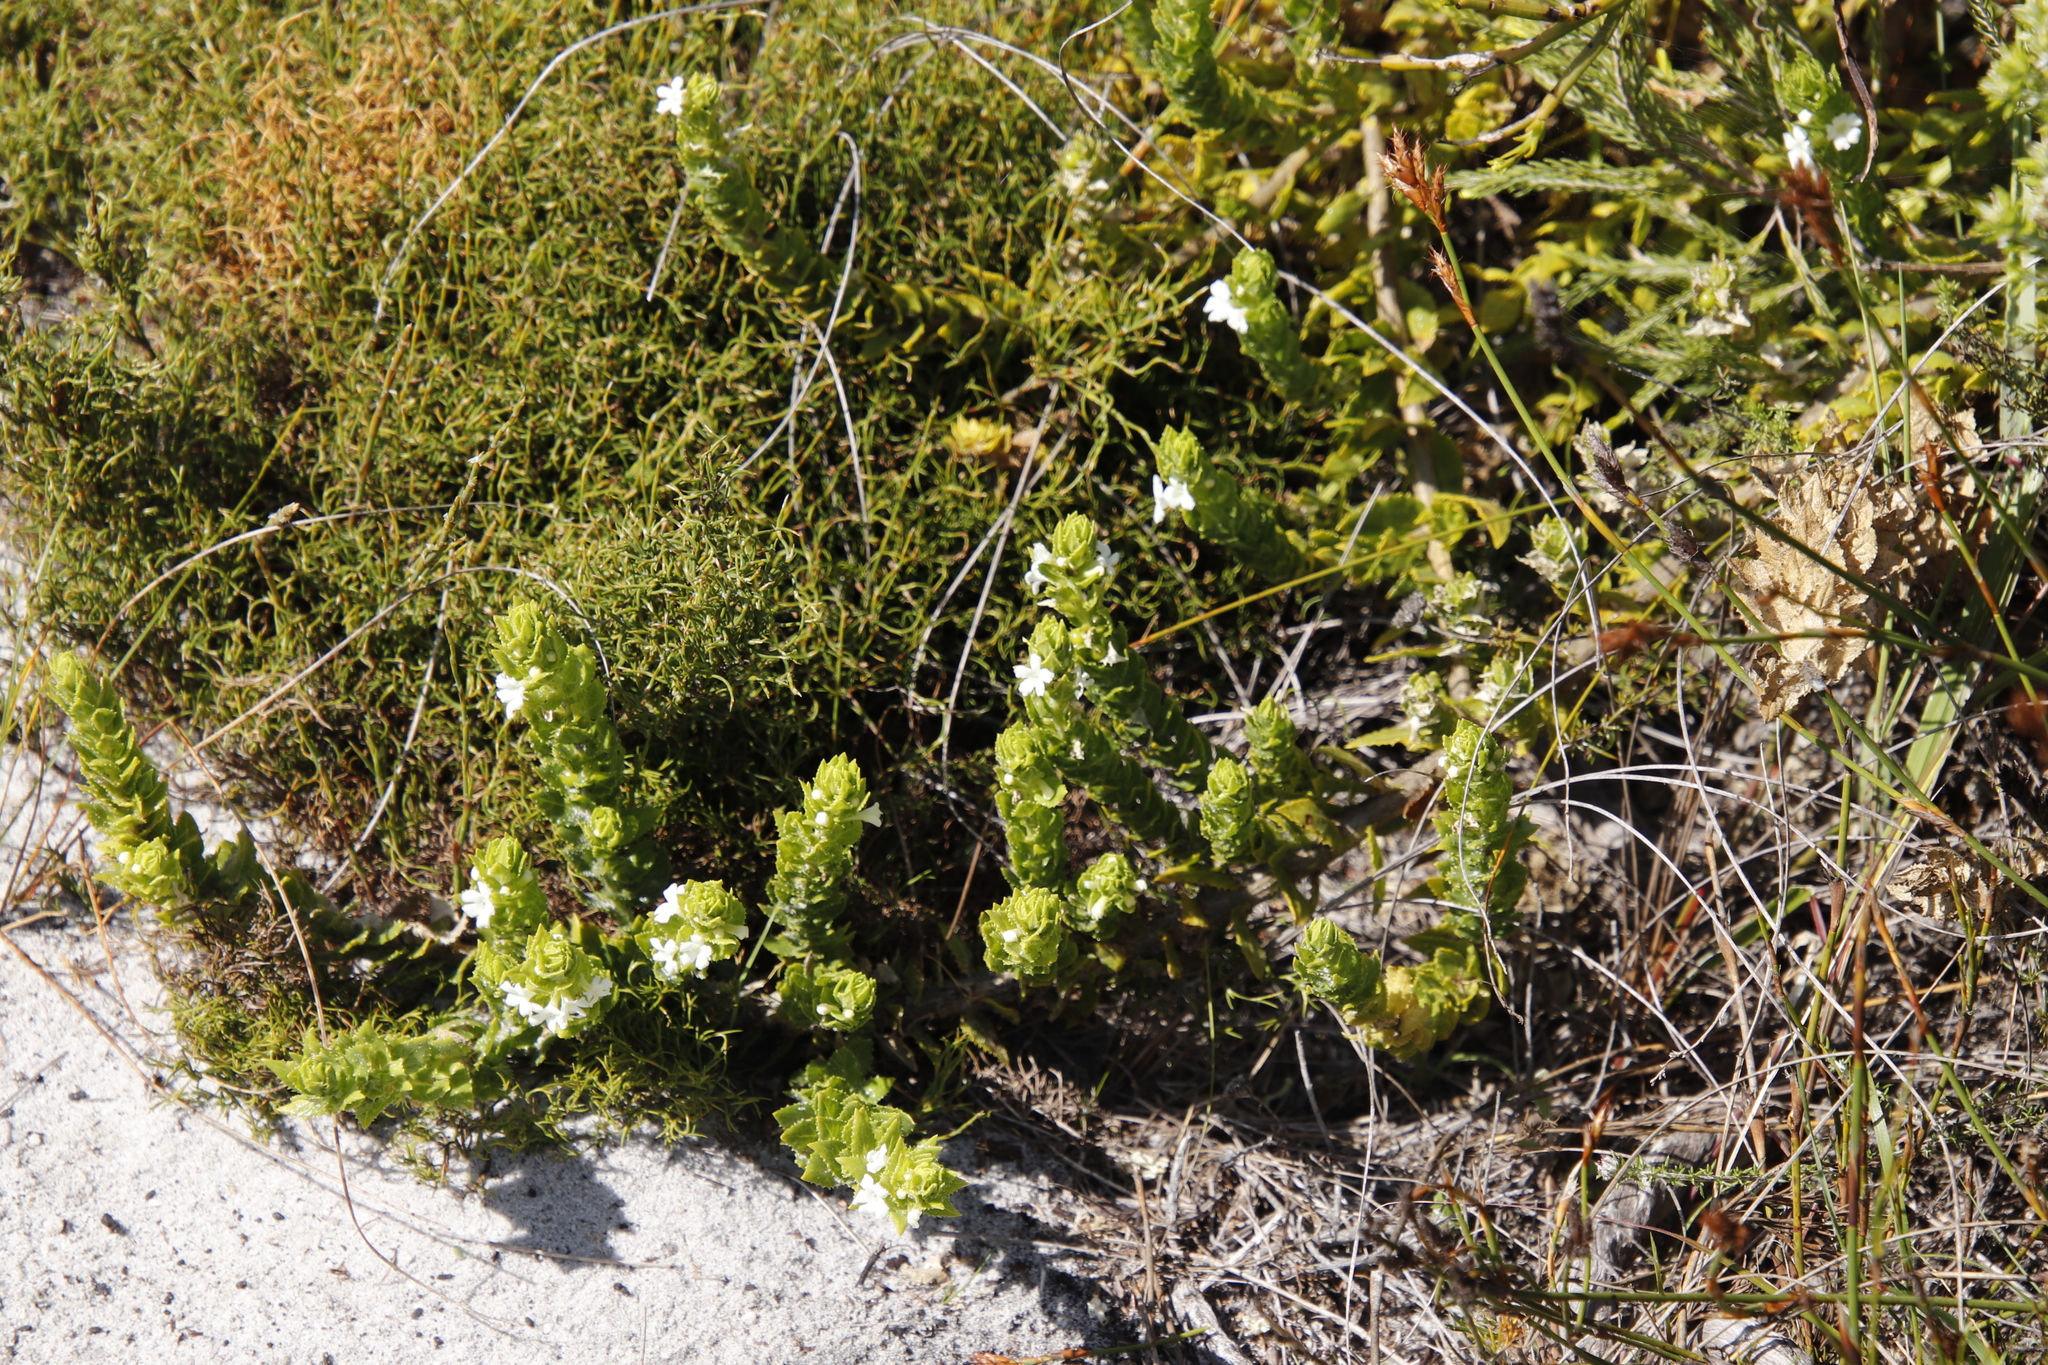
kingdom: Plantae
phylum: Tracheophyta
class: Magnoliopsida
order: Lamiales
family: Scrophulariaceae
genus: Oftia
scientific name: Oftia africana
